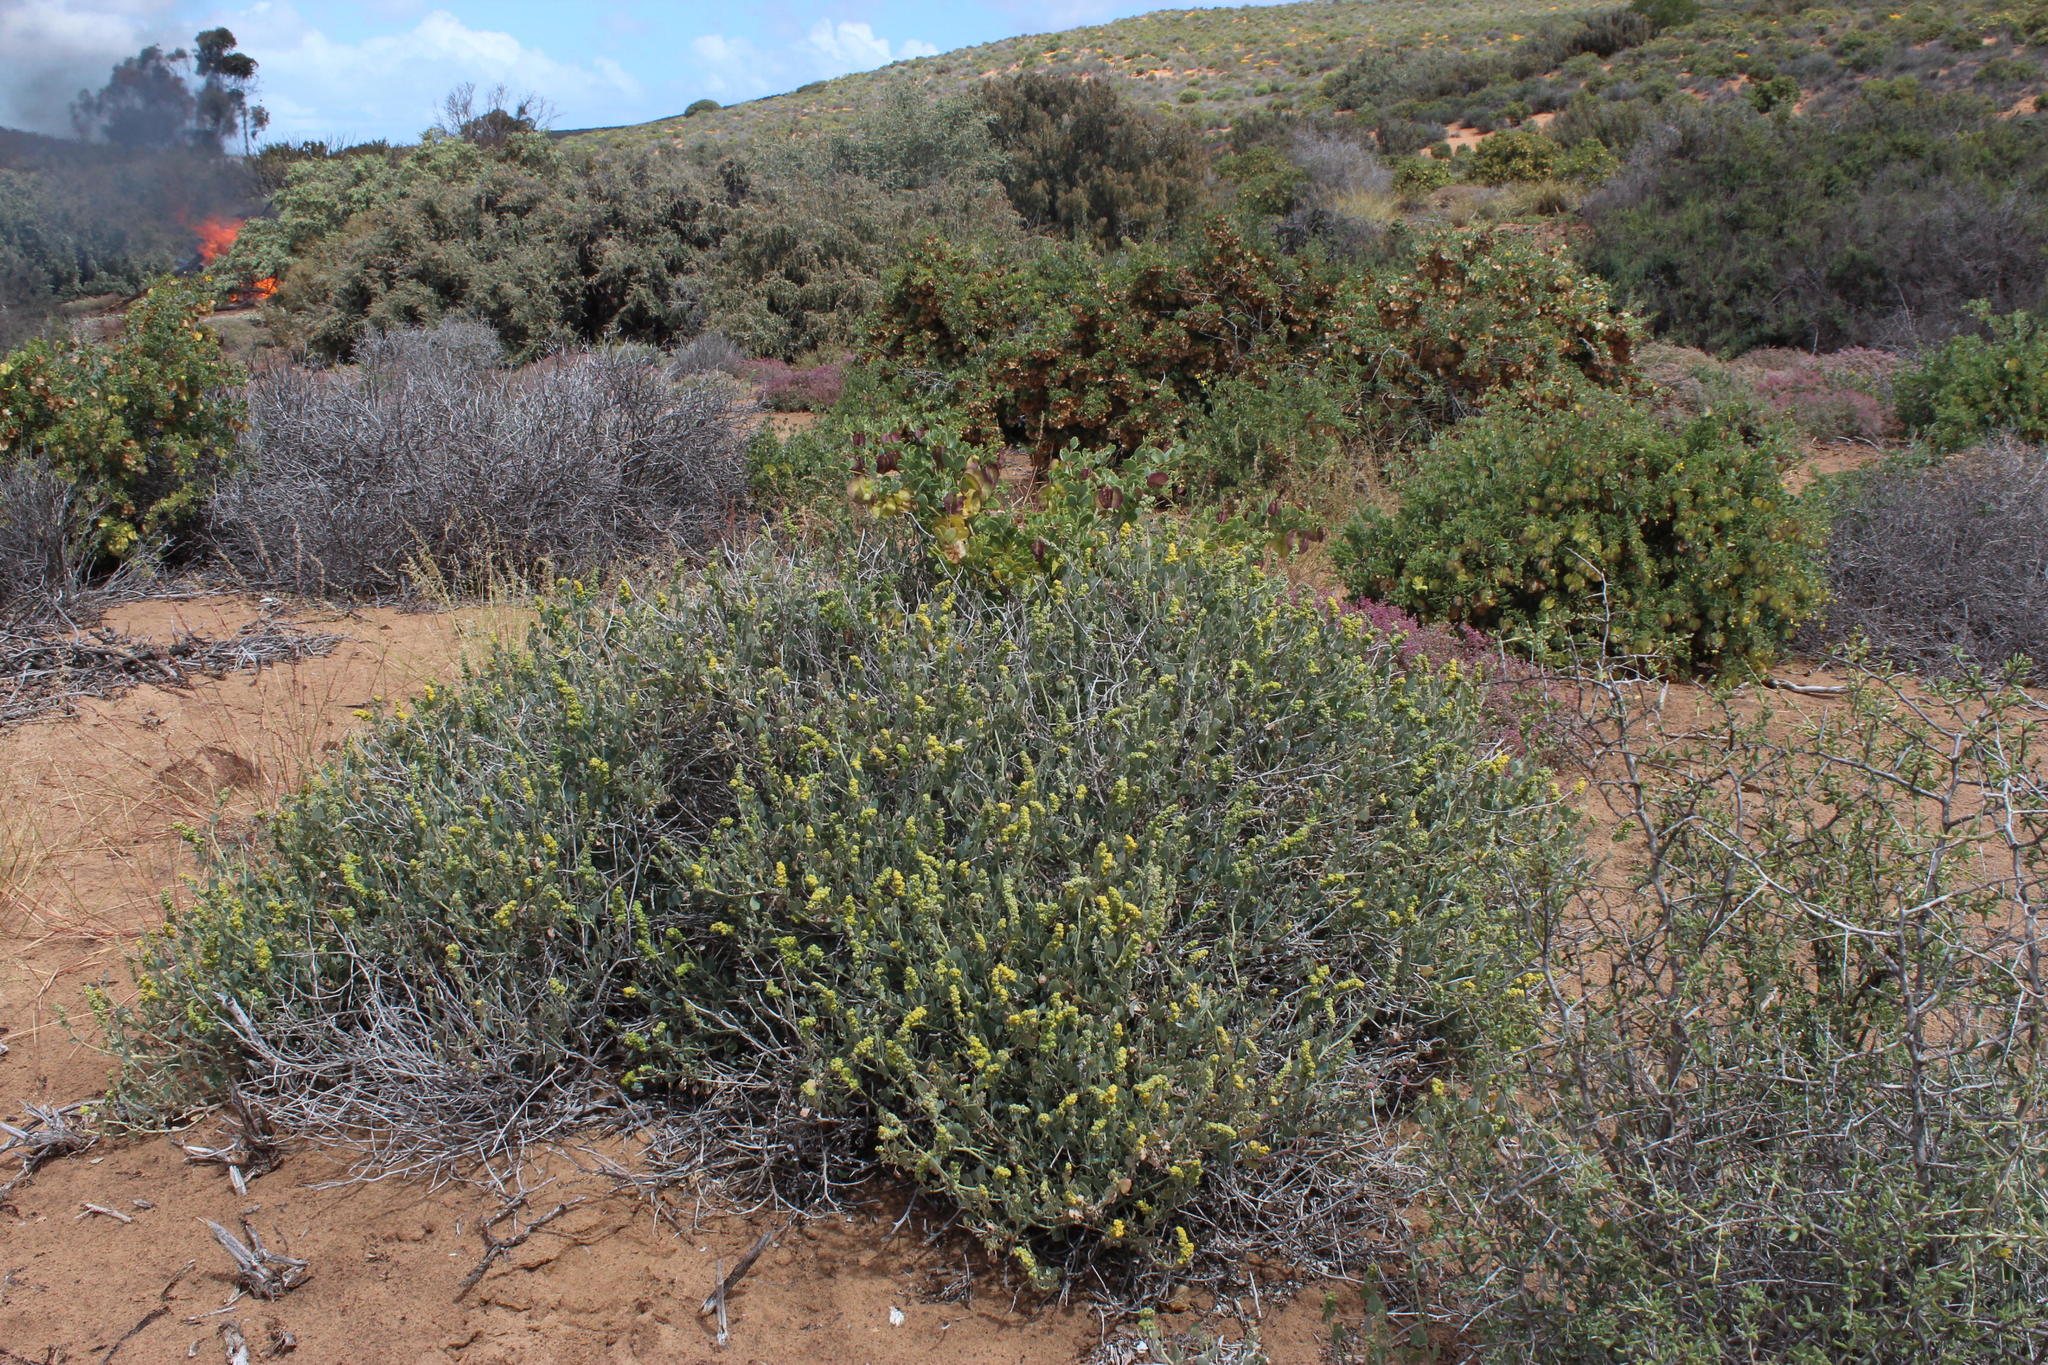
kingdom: Plantae
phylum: Tracheophyta
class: Magnoliopsida
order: Caryophyllales
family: Amaranthaceae
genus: Exomis
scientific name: Exomis albicans
